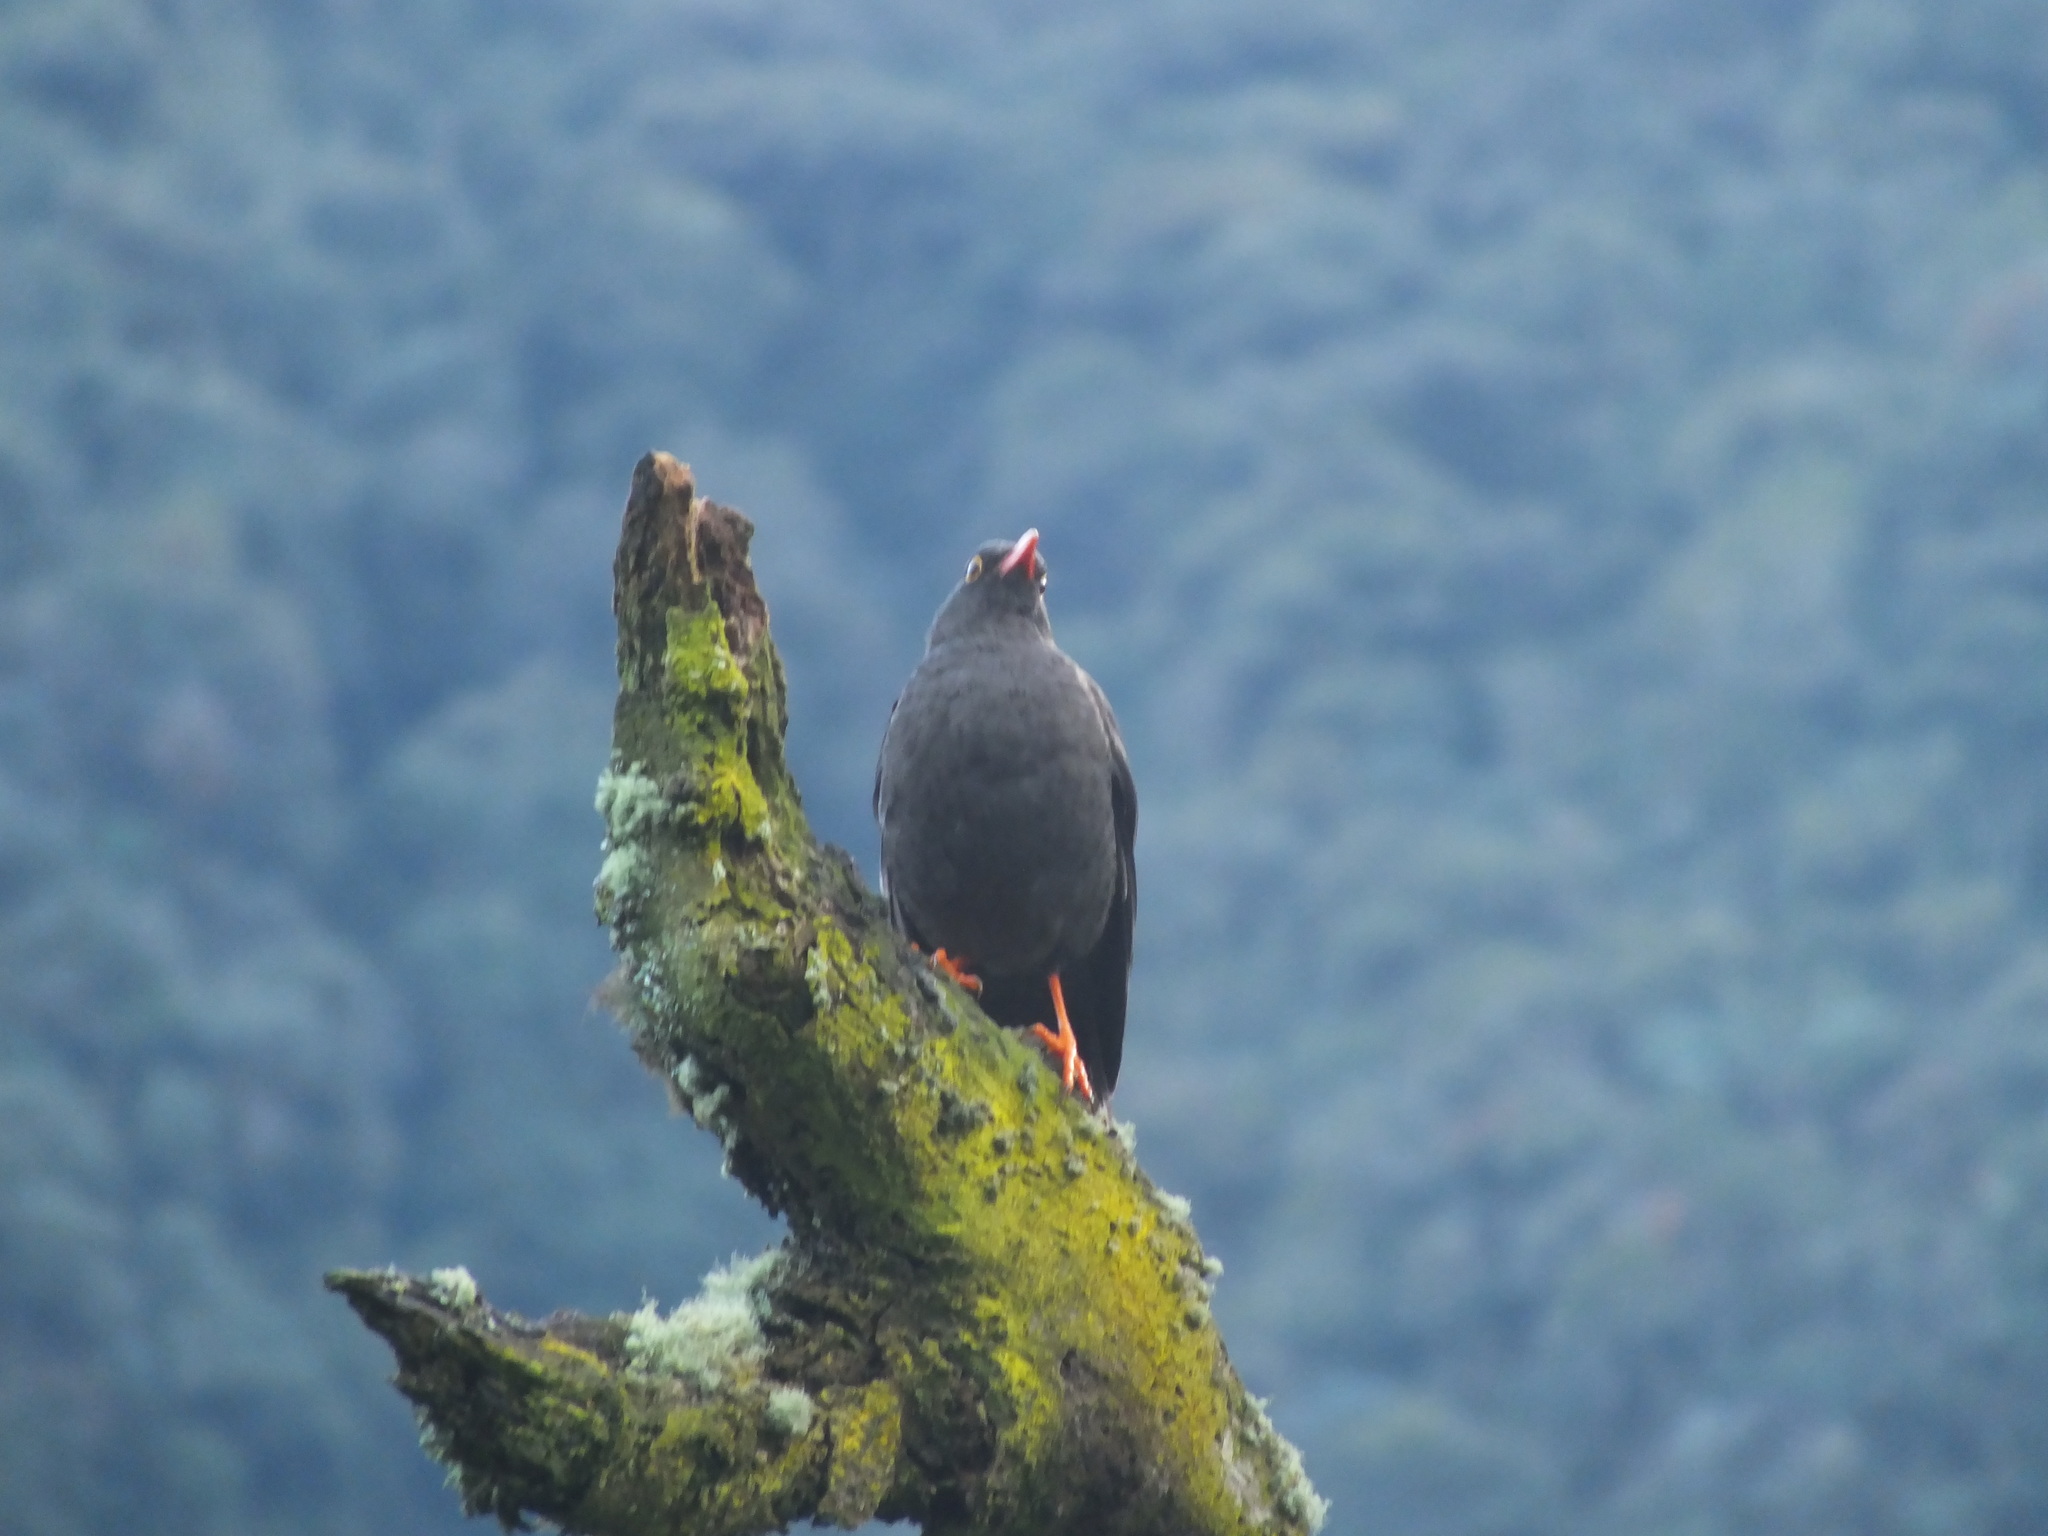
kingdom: Animalia
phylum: Chordata
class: Aves
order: Passeriformes
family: Turdidae
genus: Turdus
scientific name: Turdus fuscater
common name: Great thrush
